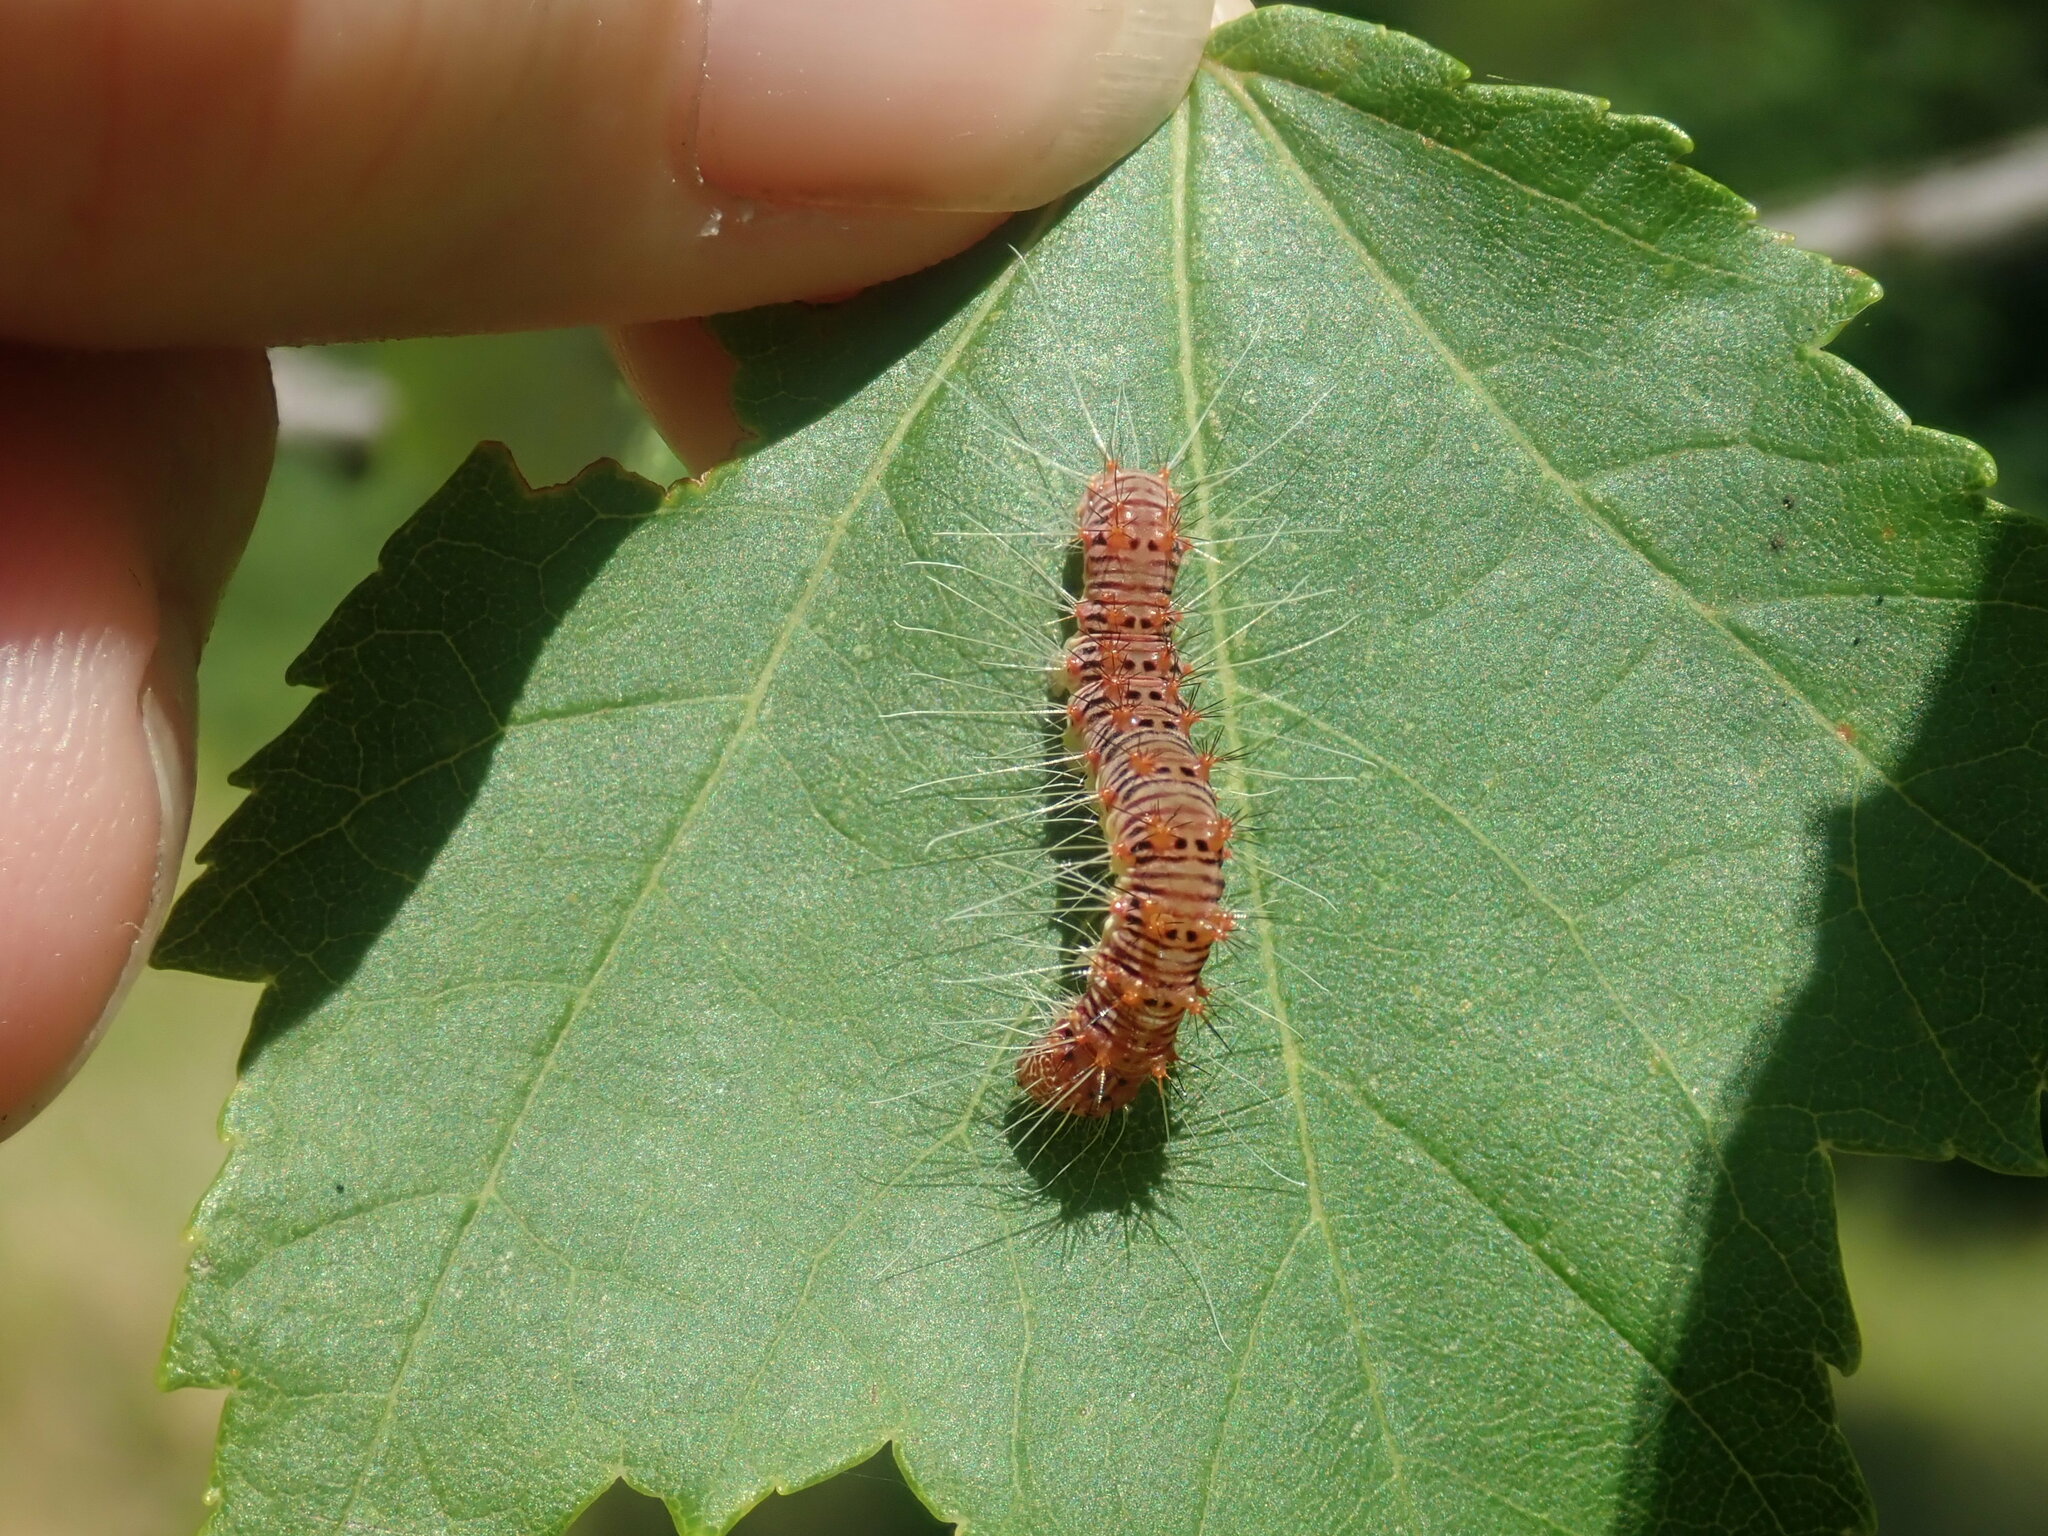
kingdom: Animalia
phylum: Arthropoda
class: Insecta
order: Lepidoptera
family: Noctuidae
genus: Acronicta
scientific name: Acronicta retardata
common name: Maple dagger
